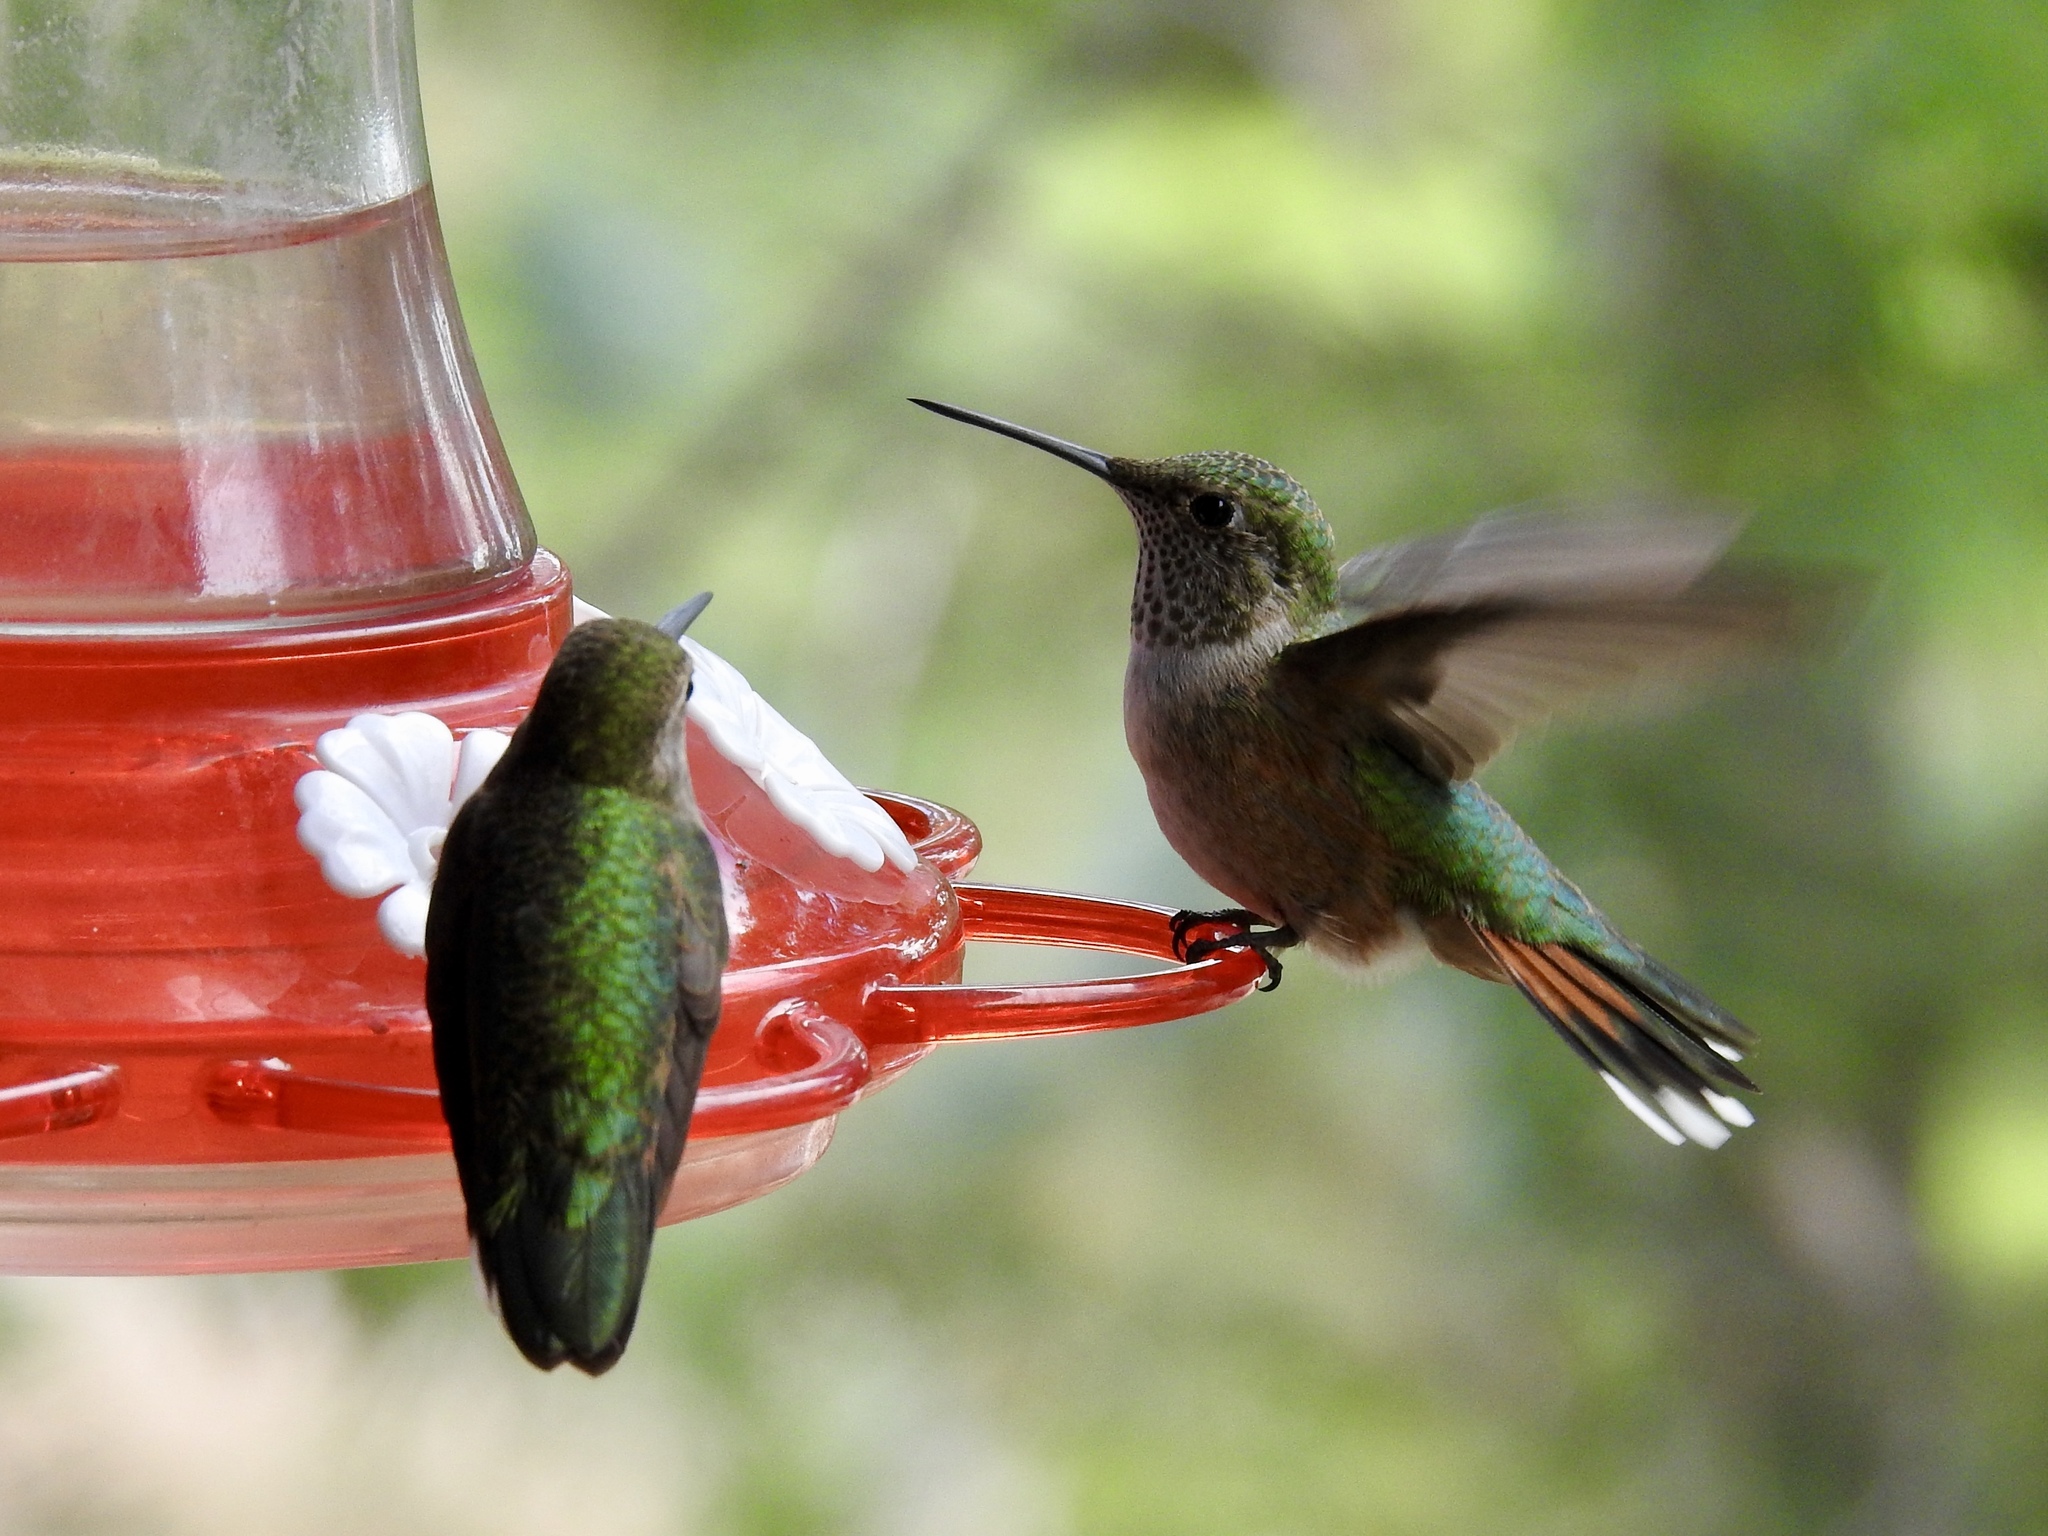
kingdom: Animalia
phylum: Chordata
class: Aves
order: Apodiformes
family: Trochilidae
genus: Selasphorus
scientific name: Selasphorus platycercus
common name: Broad-tailed hummingbird
